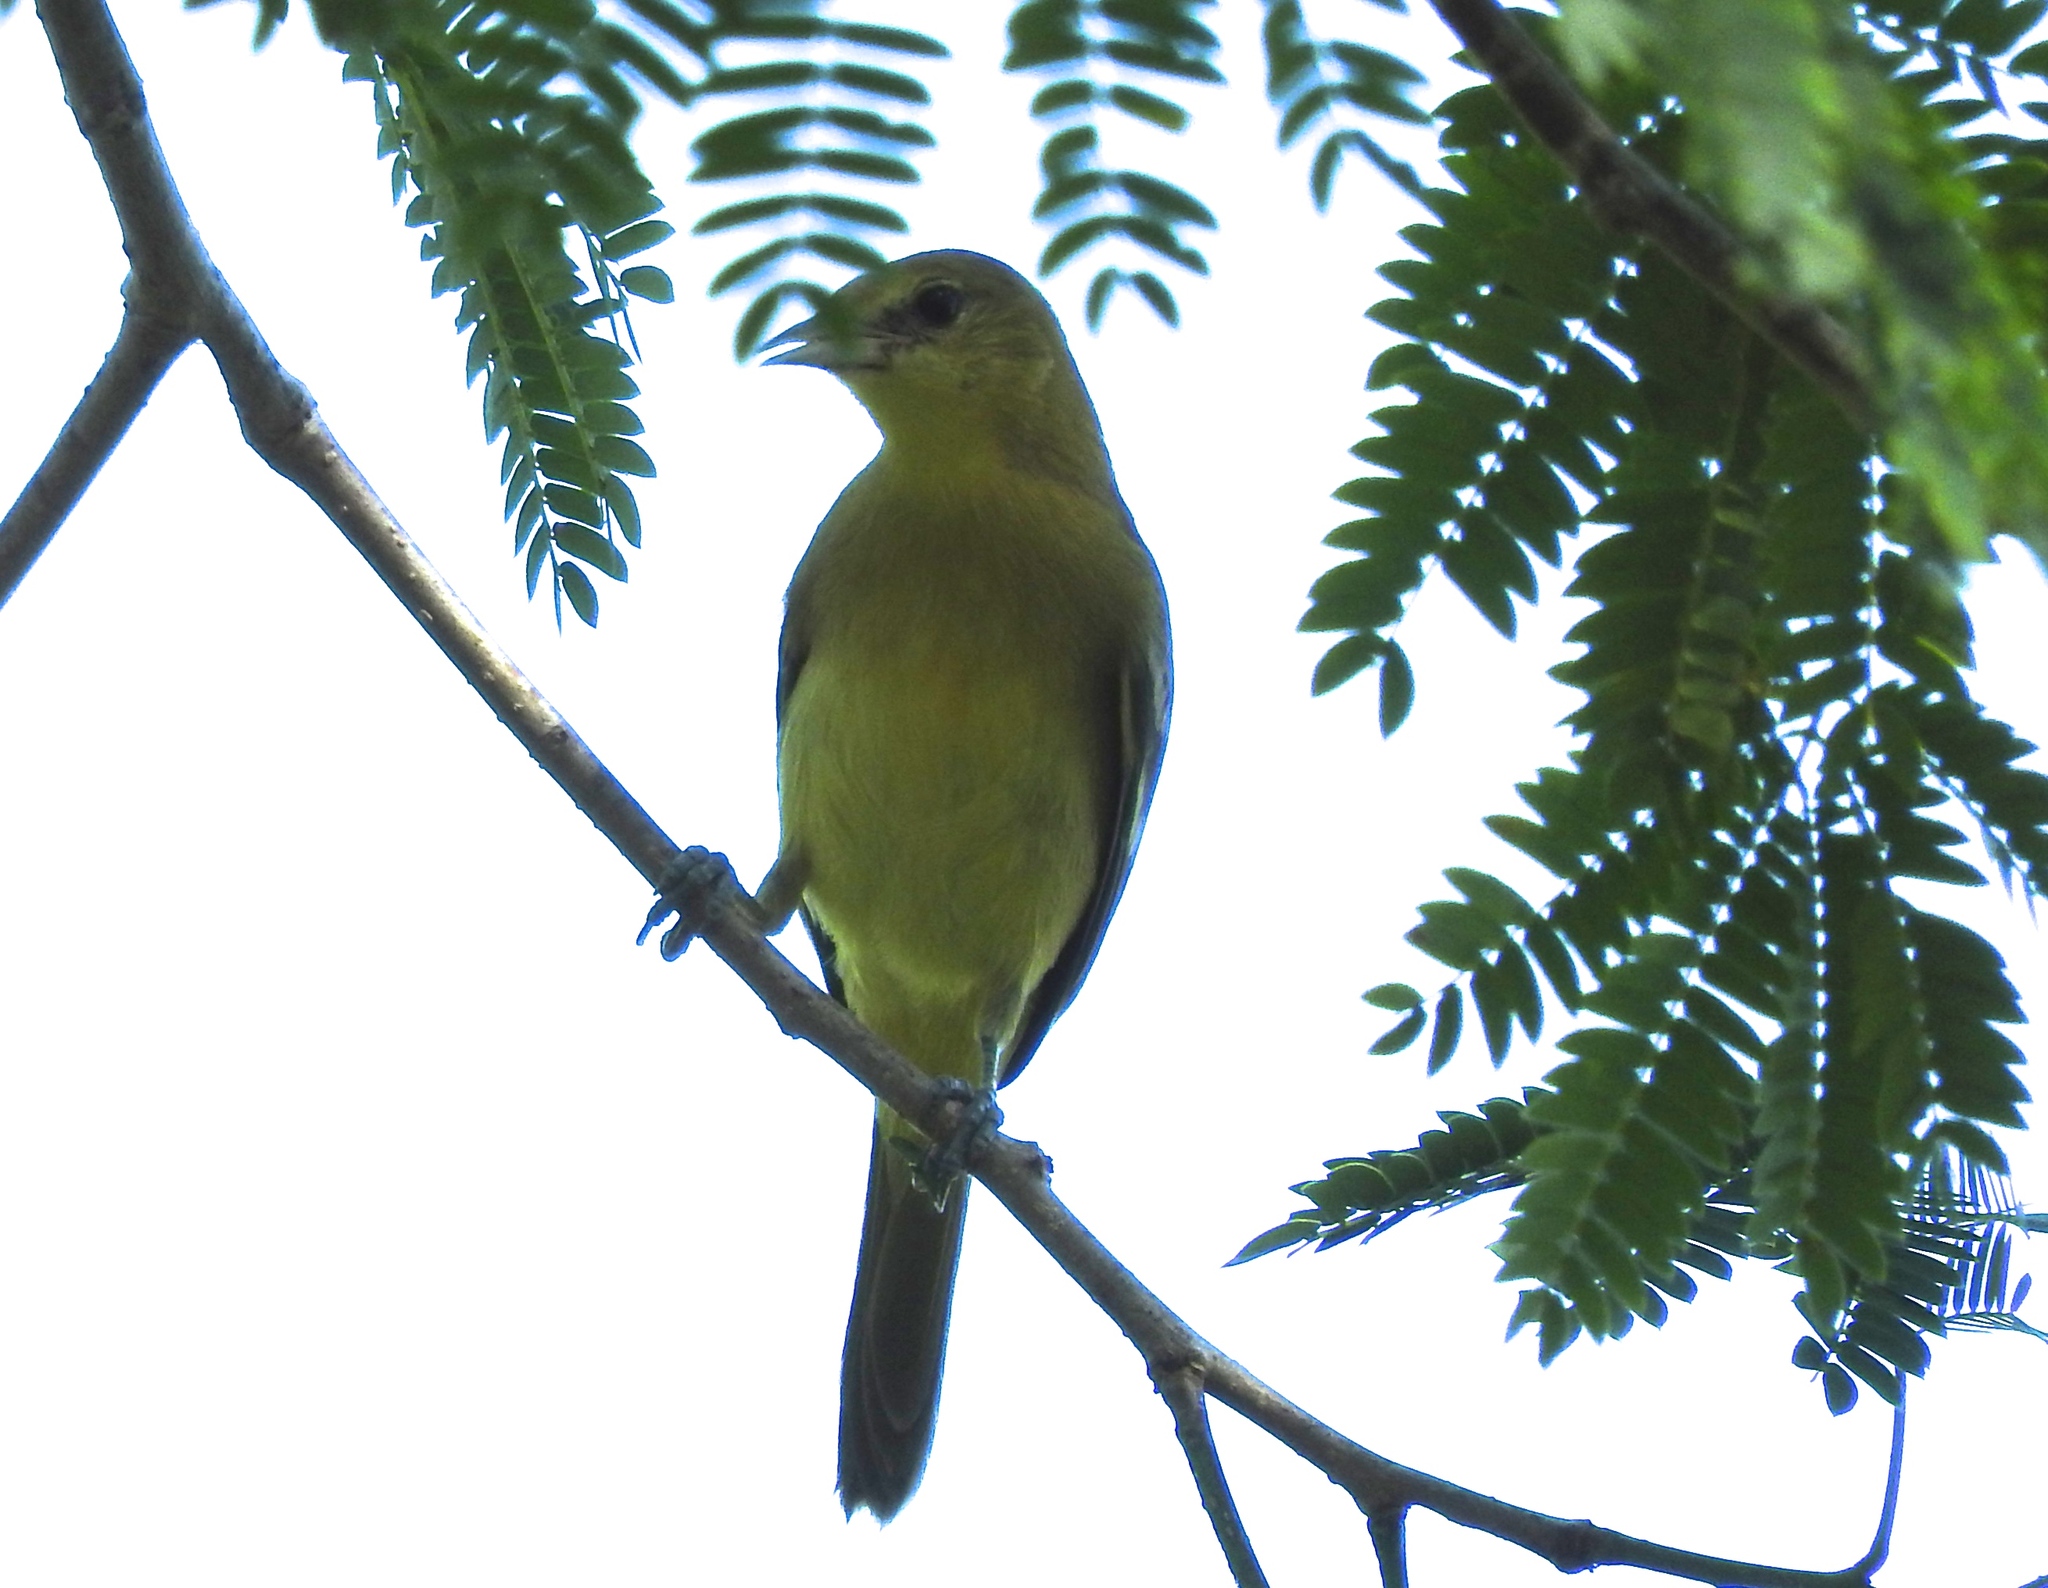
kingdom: Animalia
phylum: Chordata
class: Aves
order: Passeriformes
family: Icteridae
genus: Icterus
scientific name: Icterus
